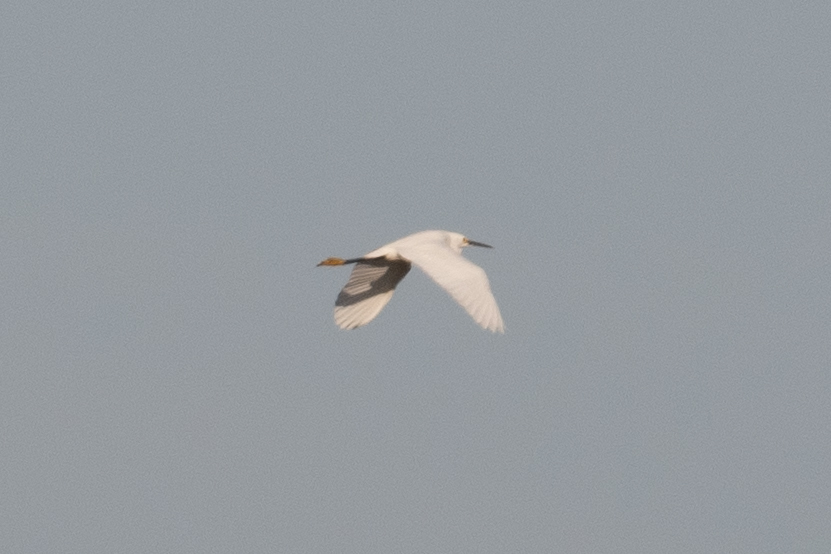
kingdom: Animalia
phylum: Chordata
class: Aves
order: Pelecaniformes
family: Ardeidae
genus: Egretta
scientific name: Egretta thula
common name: Snowy egret
